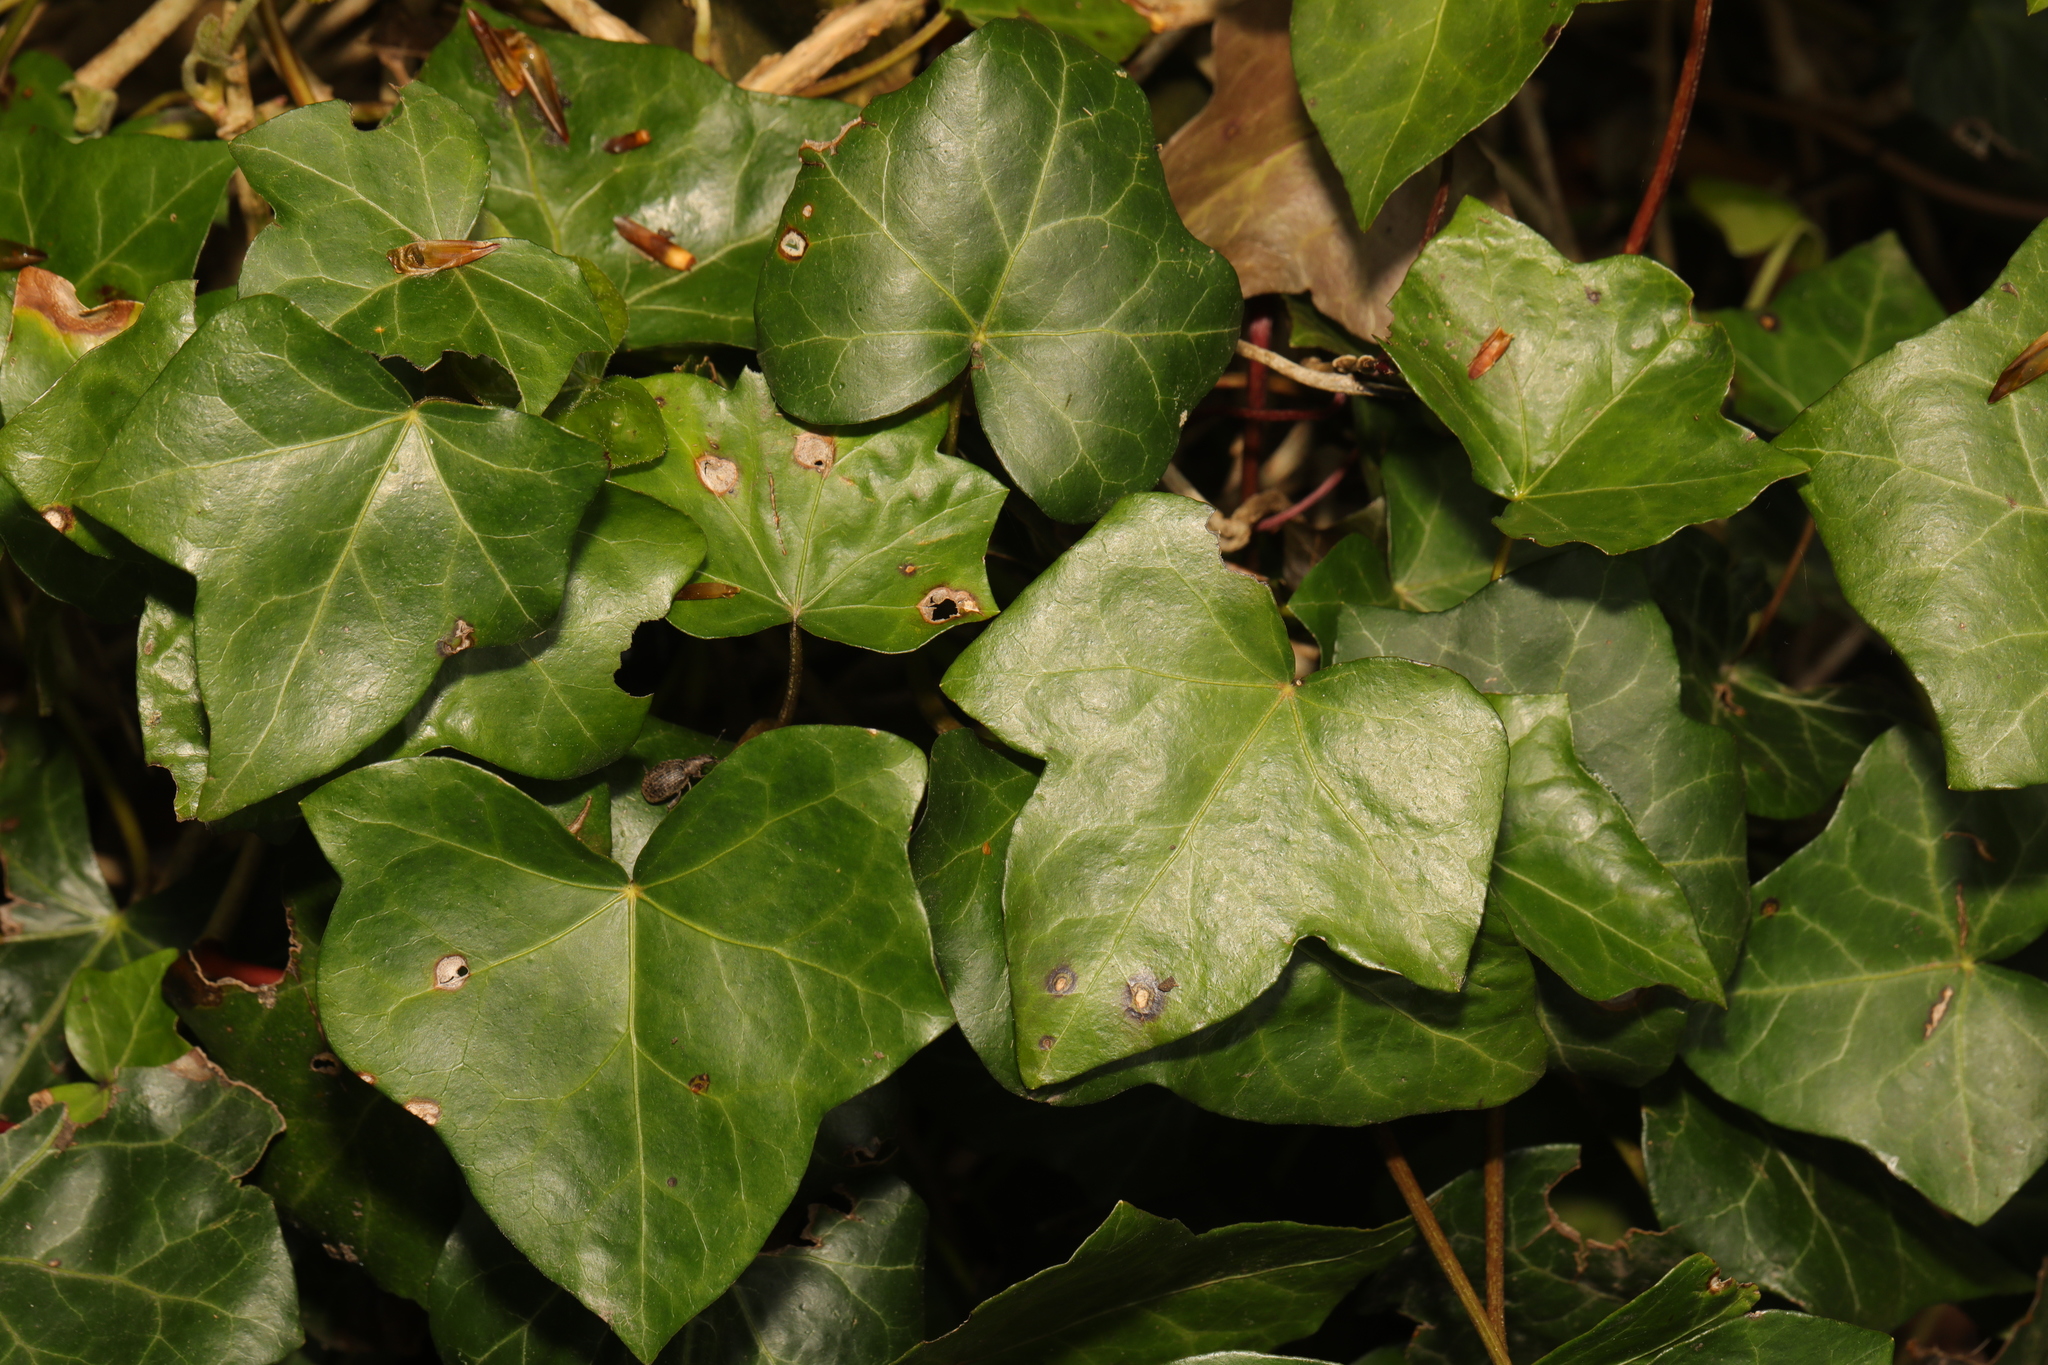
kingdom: Plantae
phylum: Tracheophyta
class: Magnoliopsida
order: Apiales
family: Araliaceae
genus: Hedera
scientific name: Hedera helix
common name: Ivy
